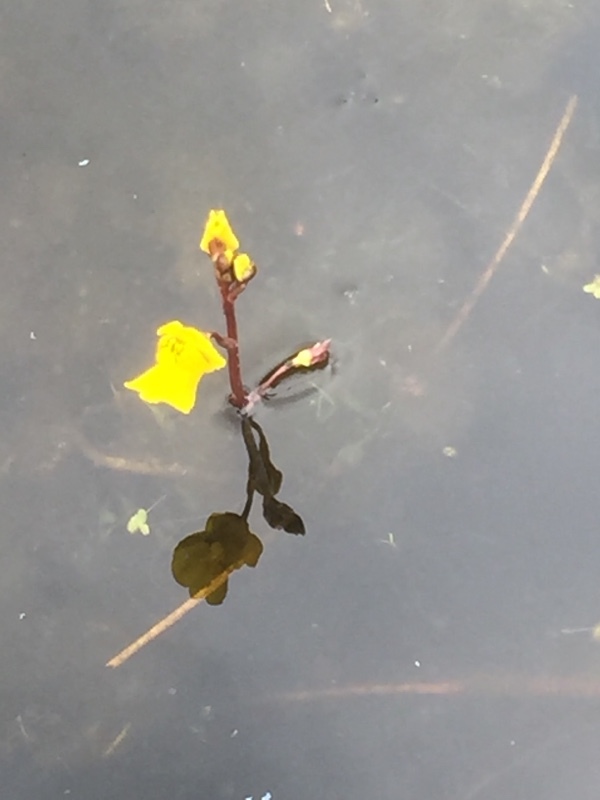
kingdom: Plantae
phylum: Tracheophyta
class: Magnoliopsida
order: Lamiales
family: Lentibulariaceae
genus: Utricularia
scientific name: Utricularia vulgaris
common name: Greater bladderwort
